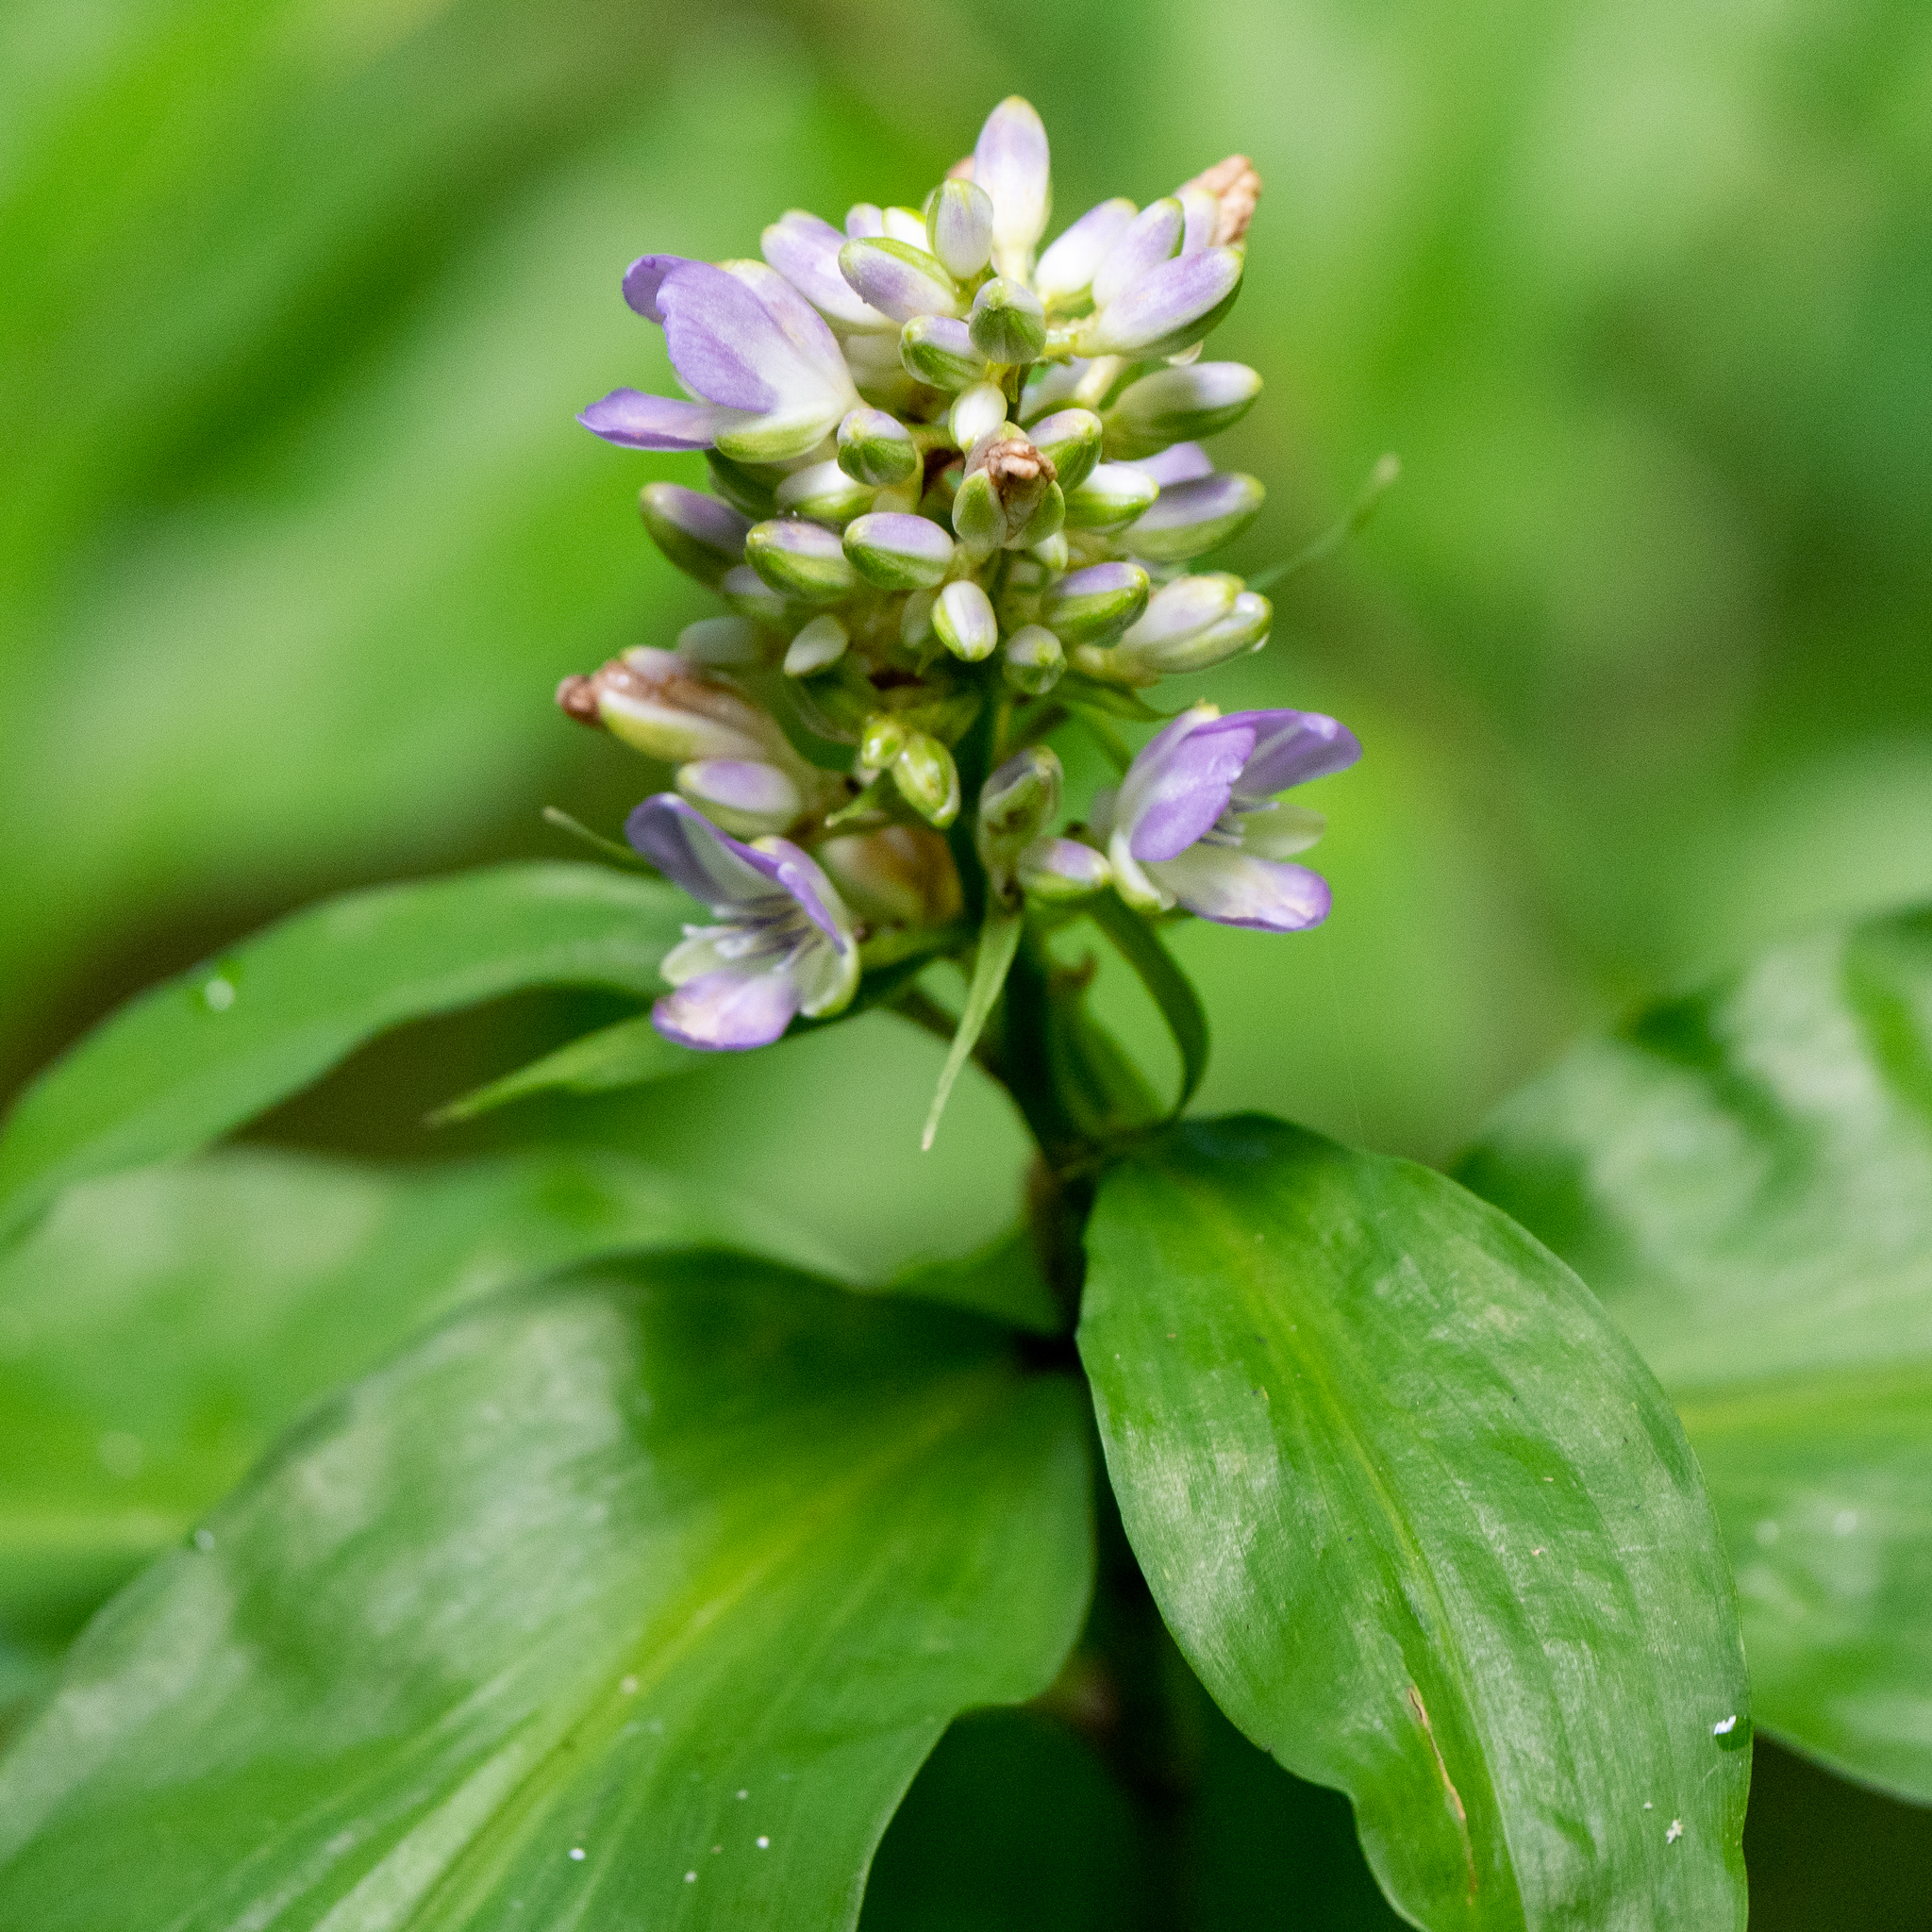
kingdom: Plantae
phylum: Tracheophyta
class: Liliopsida
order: Commelinales
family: Commelinaceae
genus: Dichorisandra
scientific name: Dichorisandra hexandra
